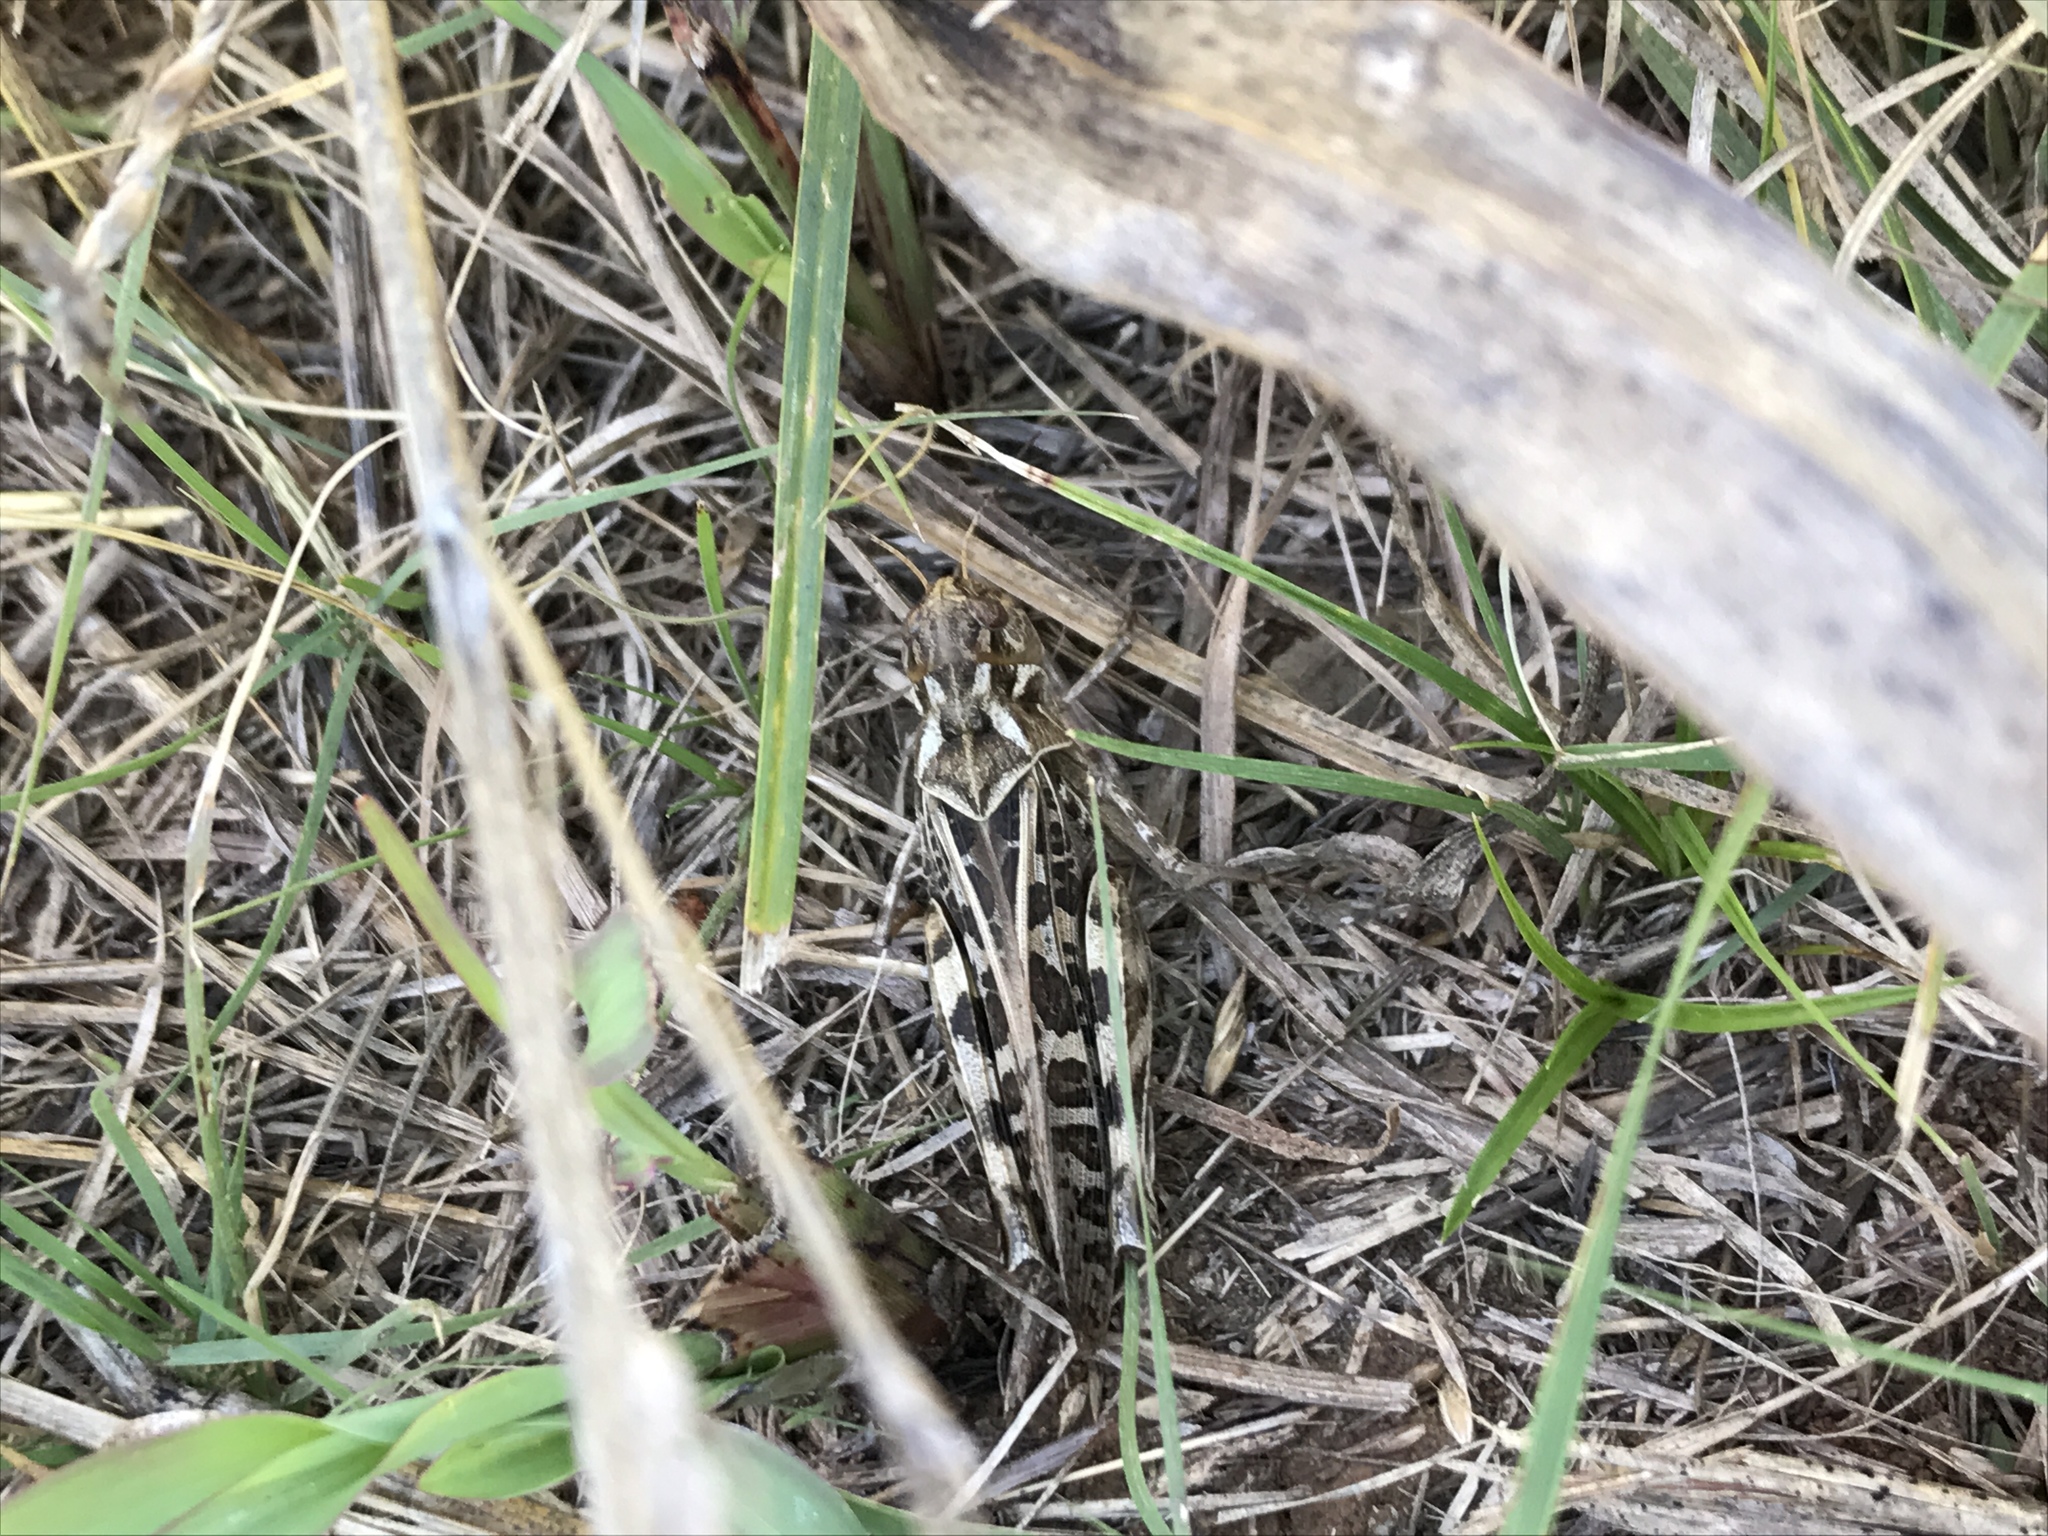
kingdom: Animalia
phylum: Arthropoda
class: Insecta
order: Orthoptera
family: Acrididae
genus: Hippiscus
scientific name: Hippiscus ocelote
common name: Wrinkled grasshopper
